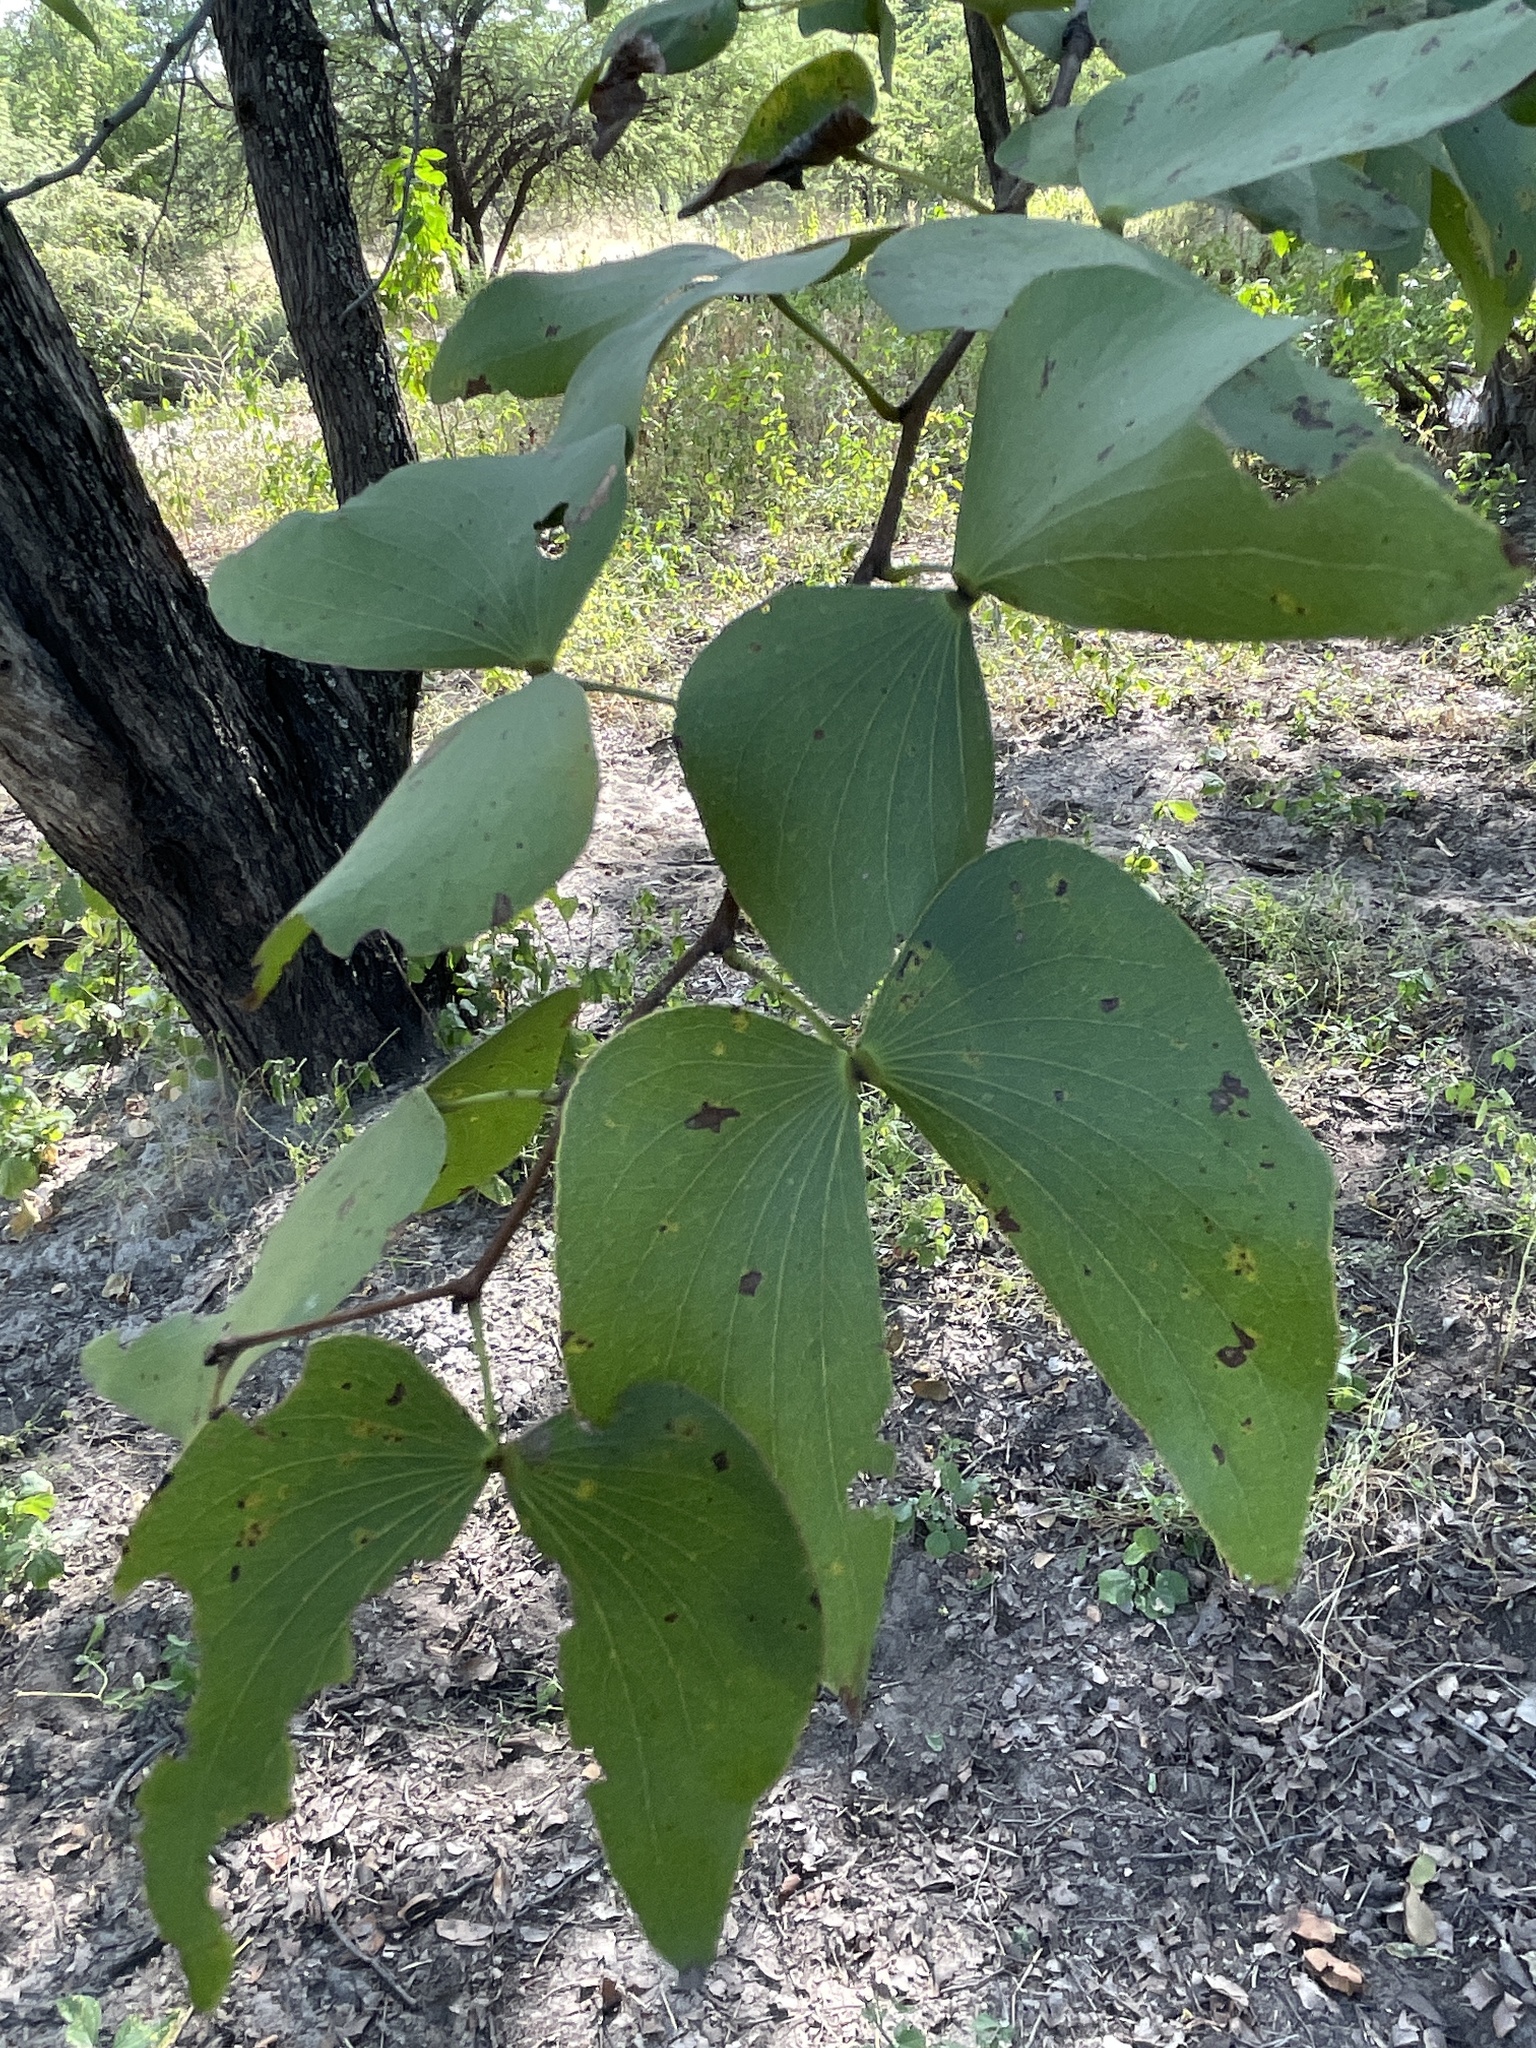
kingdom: Plantae
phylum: Tracheophyta
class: Magnoliopsida
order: Fabales
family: Fabaceae
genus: Colophospermum
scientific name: Colophospermum mopane
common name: Mopane
